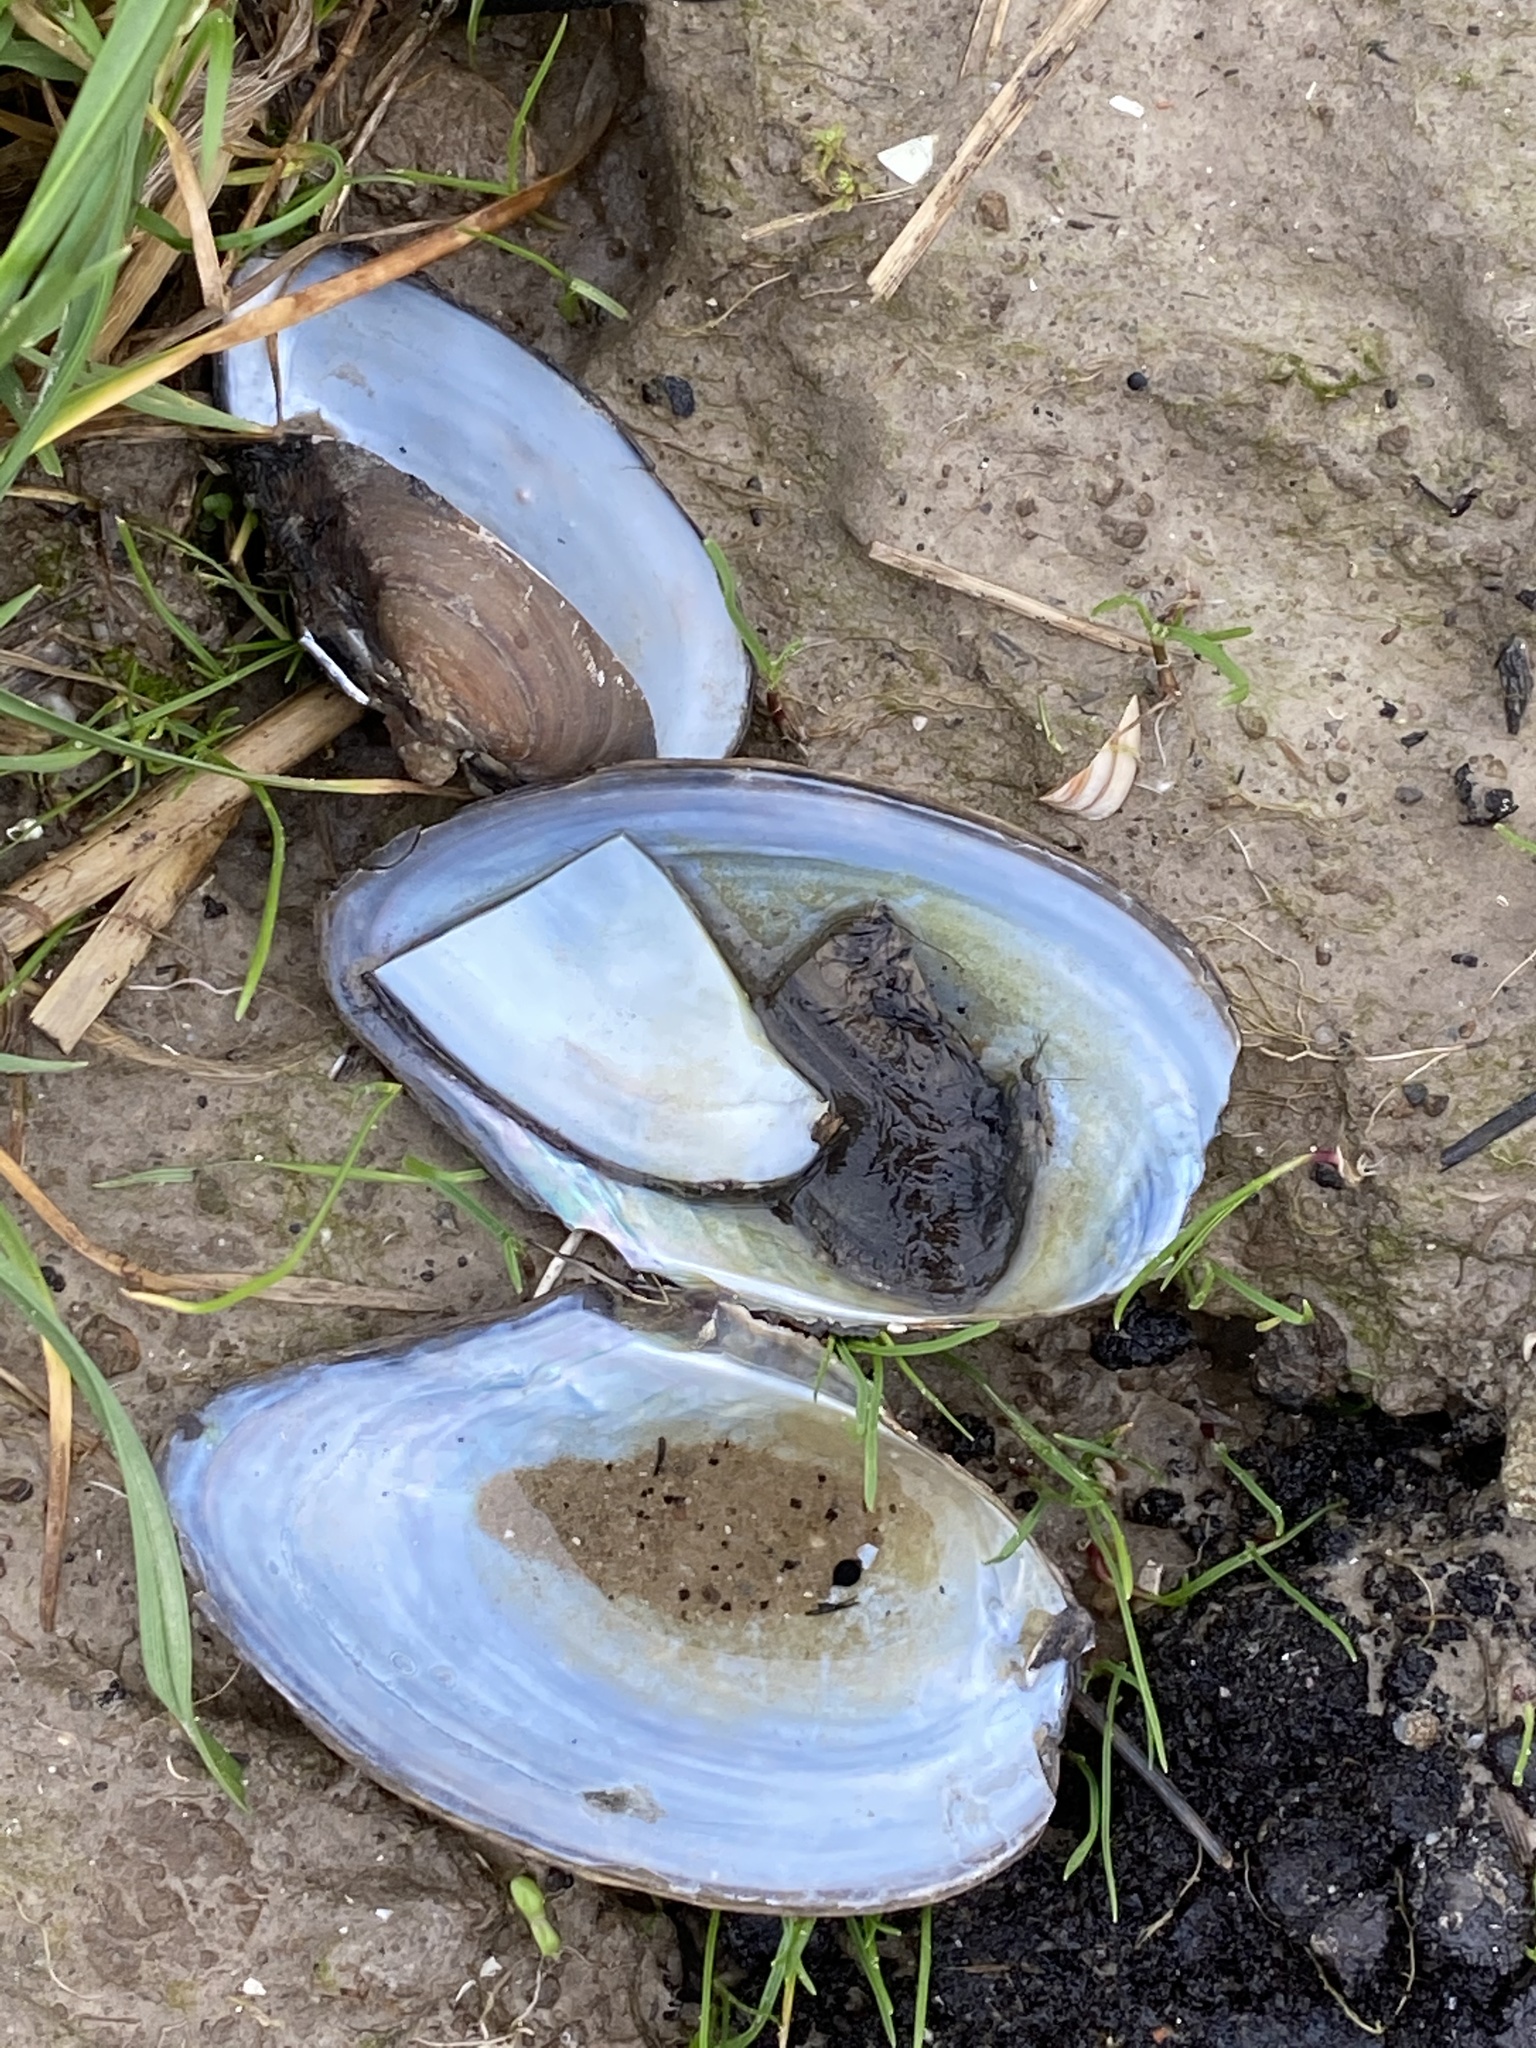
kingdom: Animalia
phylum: Mollusca
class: Bivalvia
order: Unionida
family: Unionidae
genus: Anodonta
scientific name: Anodonta anatina
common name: Duck mussel
